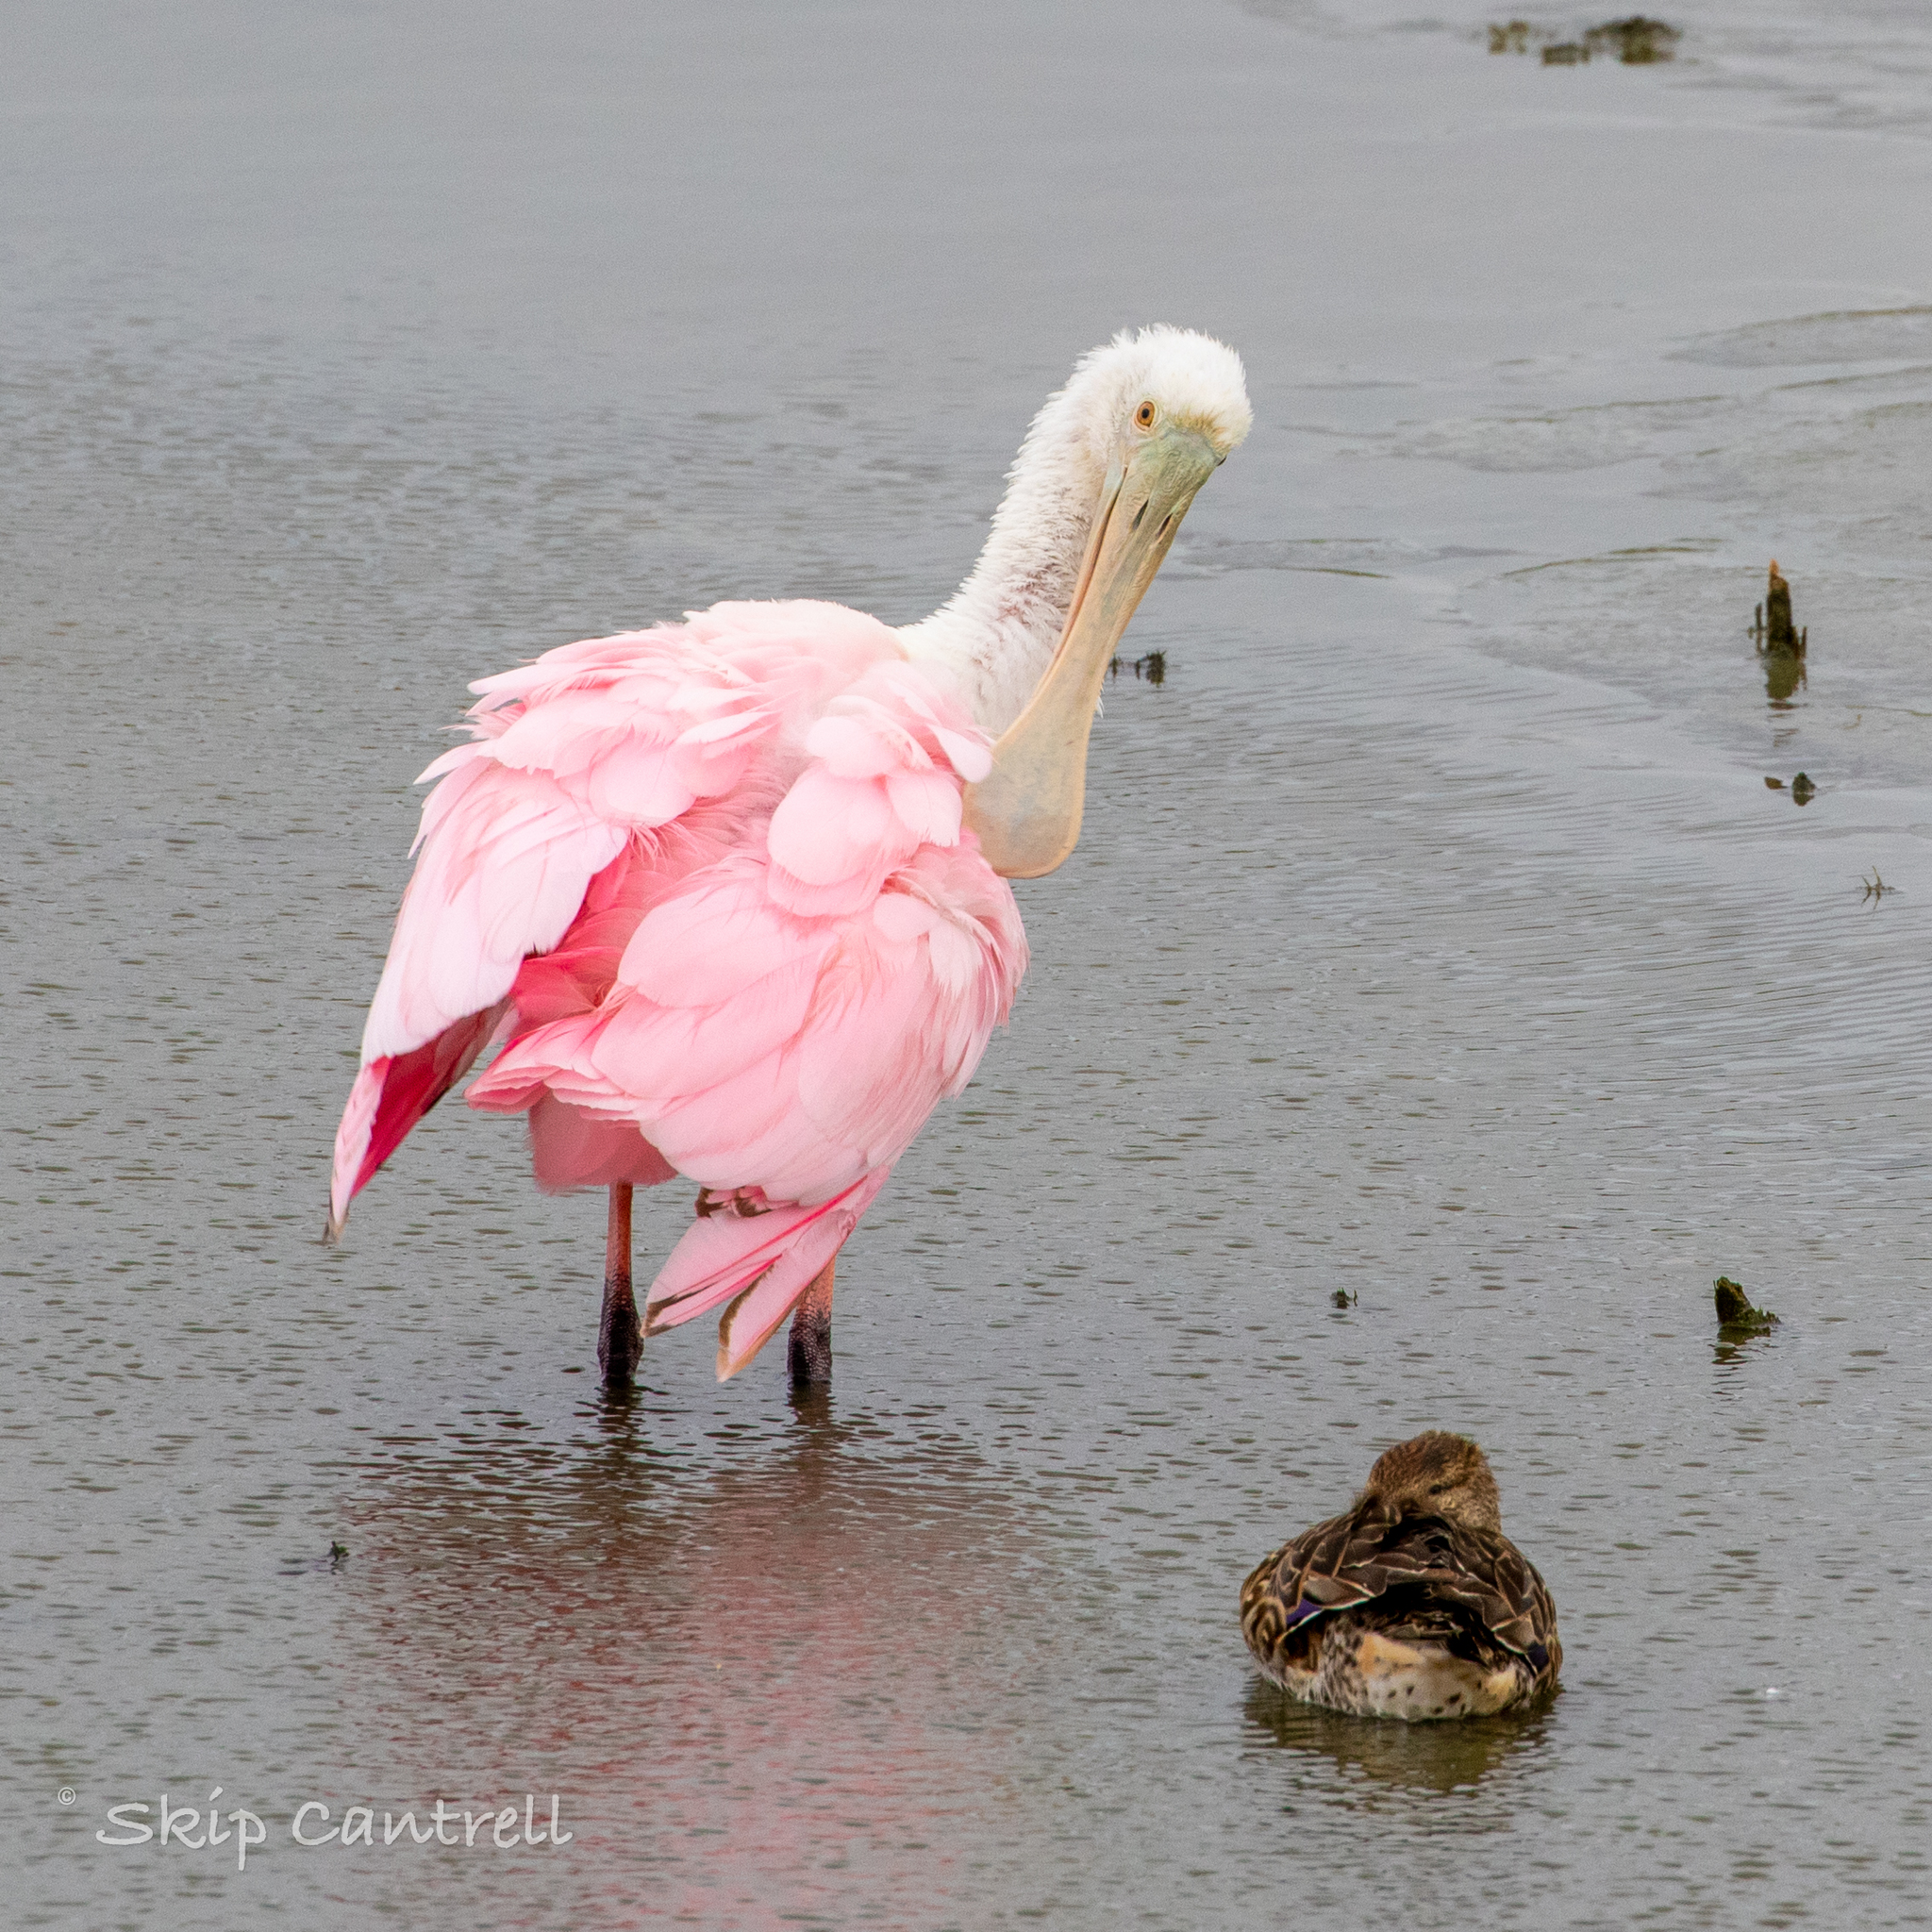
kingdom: Animalia
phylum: Chordata
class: Aves
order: Pelecaniformes
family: Threskiornithidae
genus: Platalea
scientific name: Platalea ajaja
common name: Roseate spoonbill
